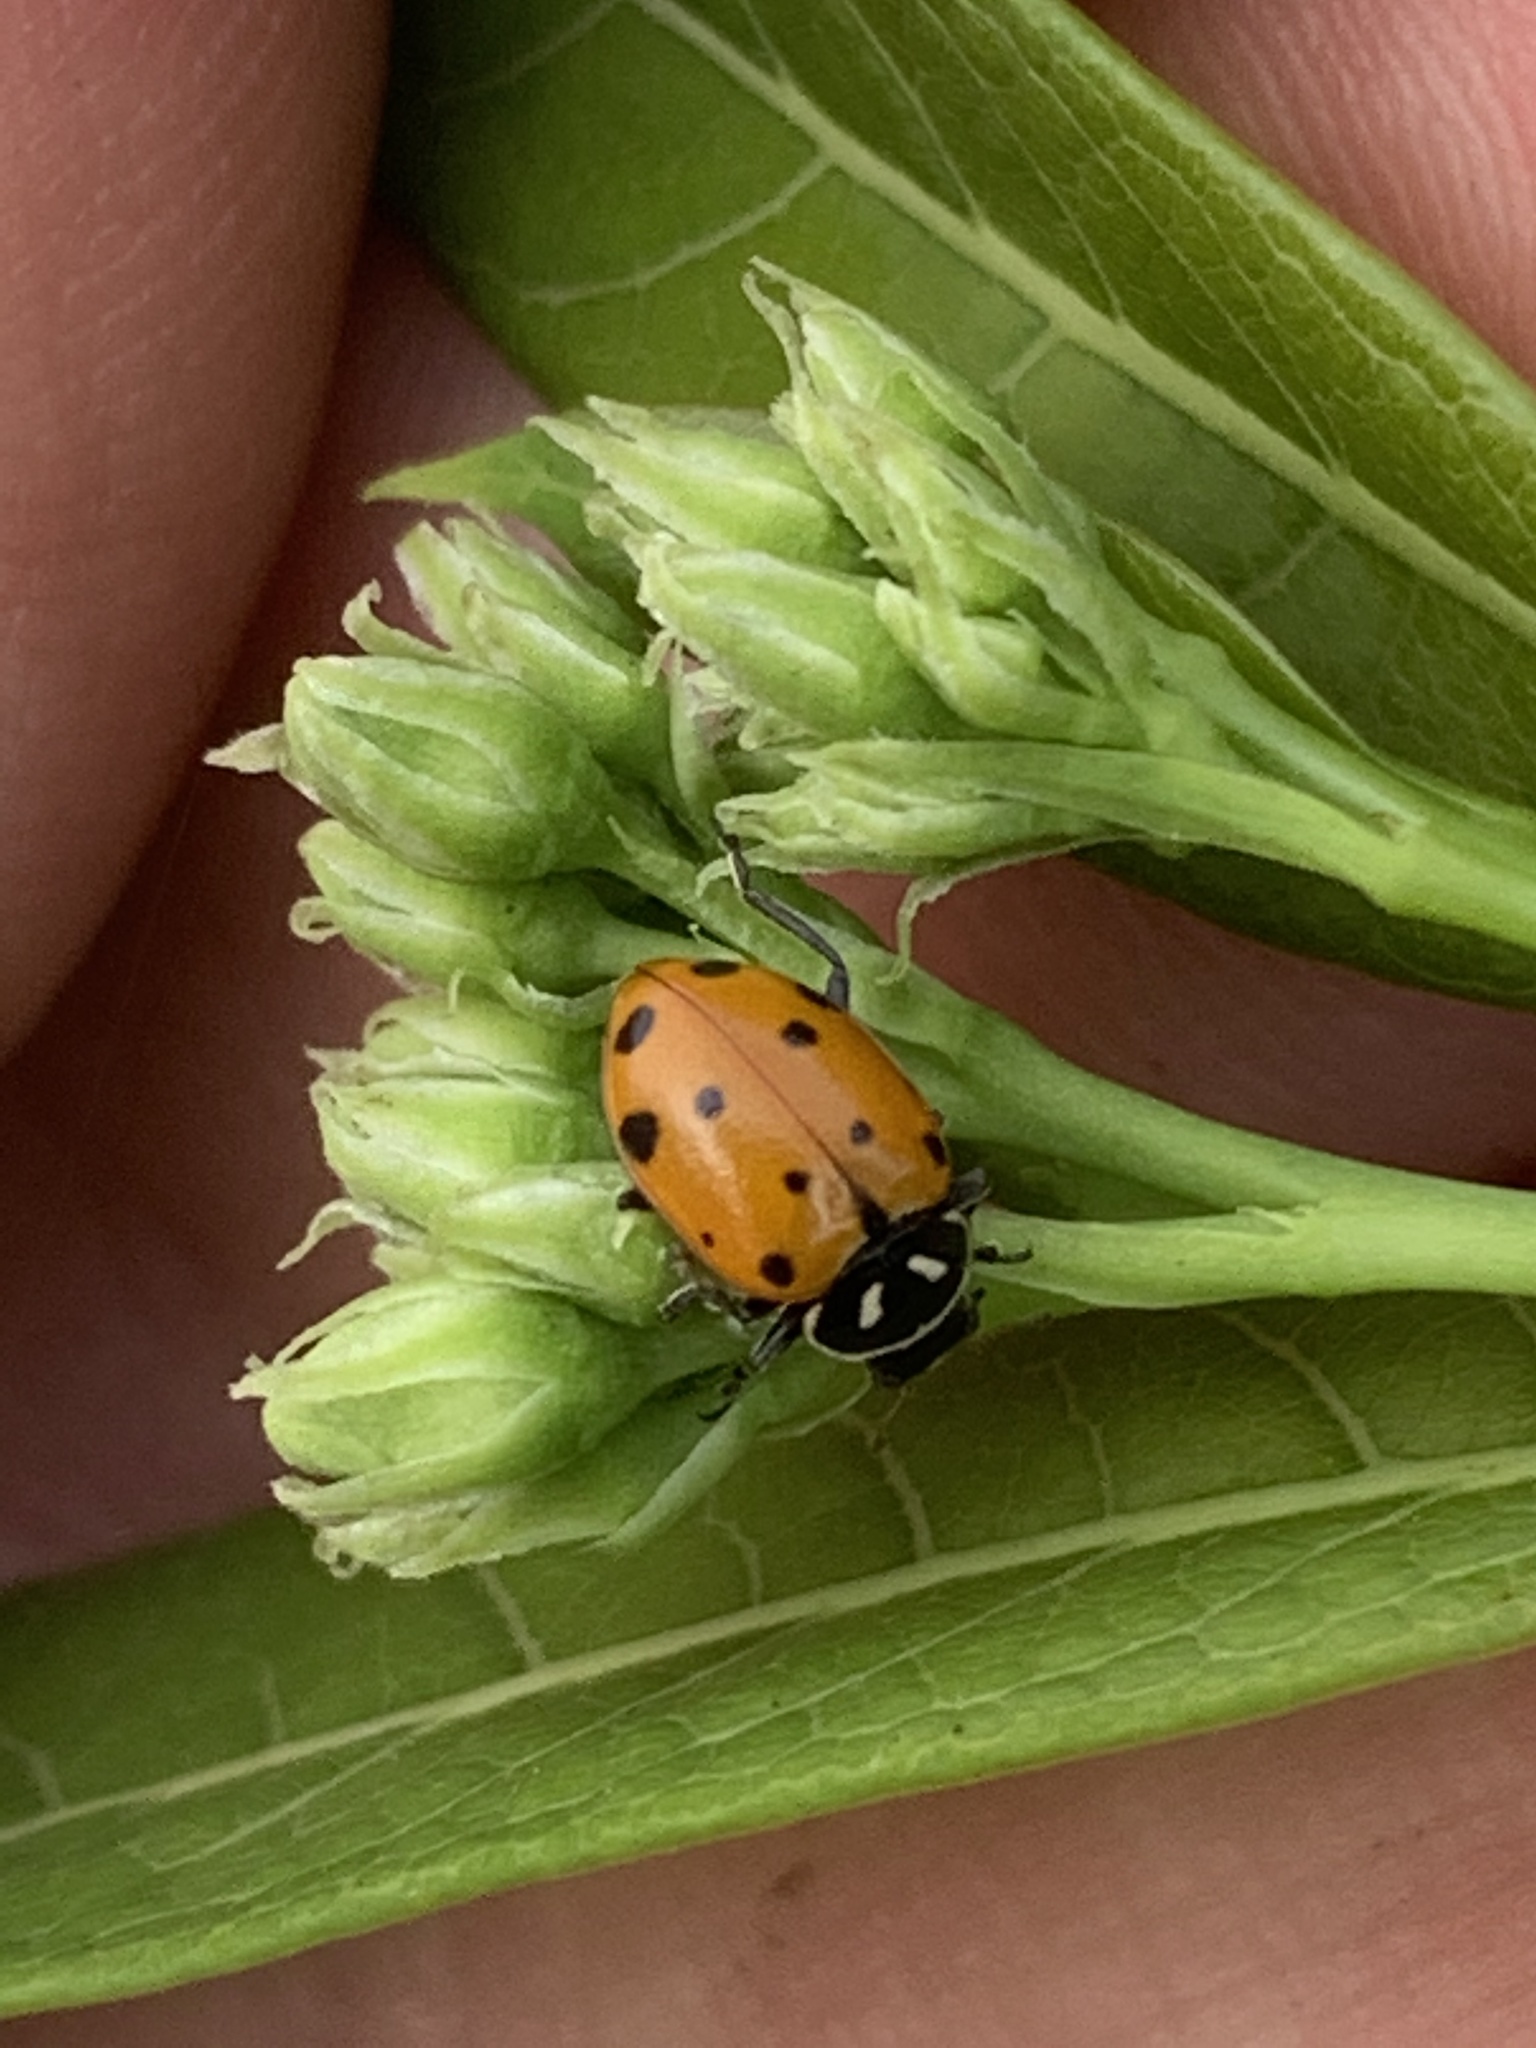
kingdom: Animalia
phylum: Arthropoda
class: Insecta
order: Coleoptera
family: Coccinellidae
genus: Hippodamia
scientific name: Hippodamia convergens
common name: Convergent lady beetle
